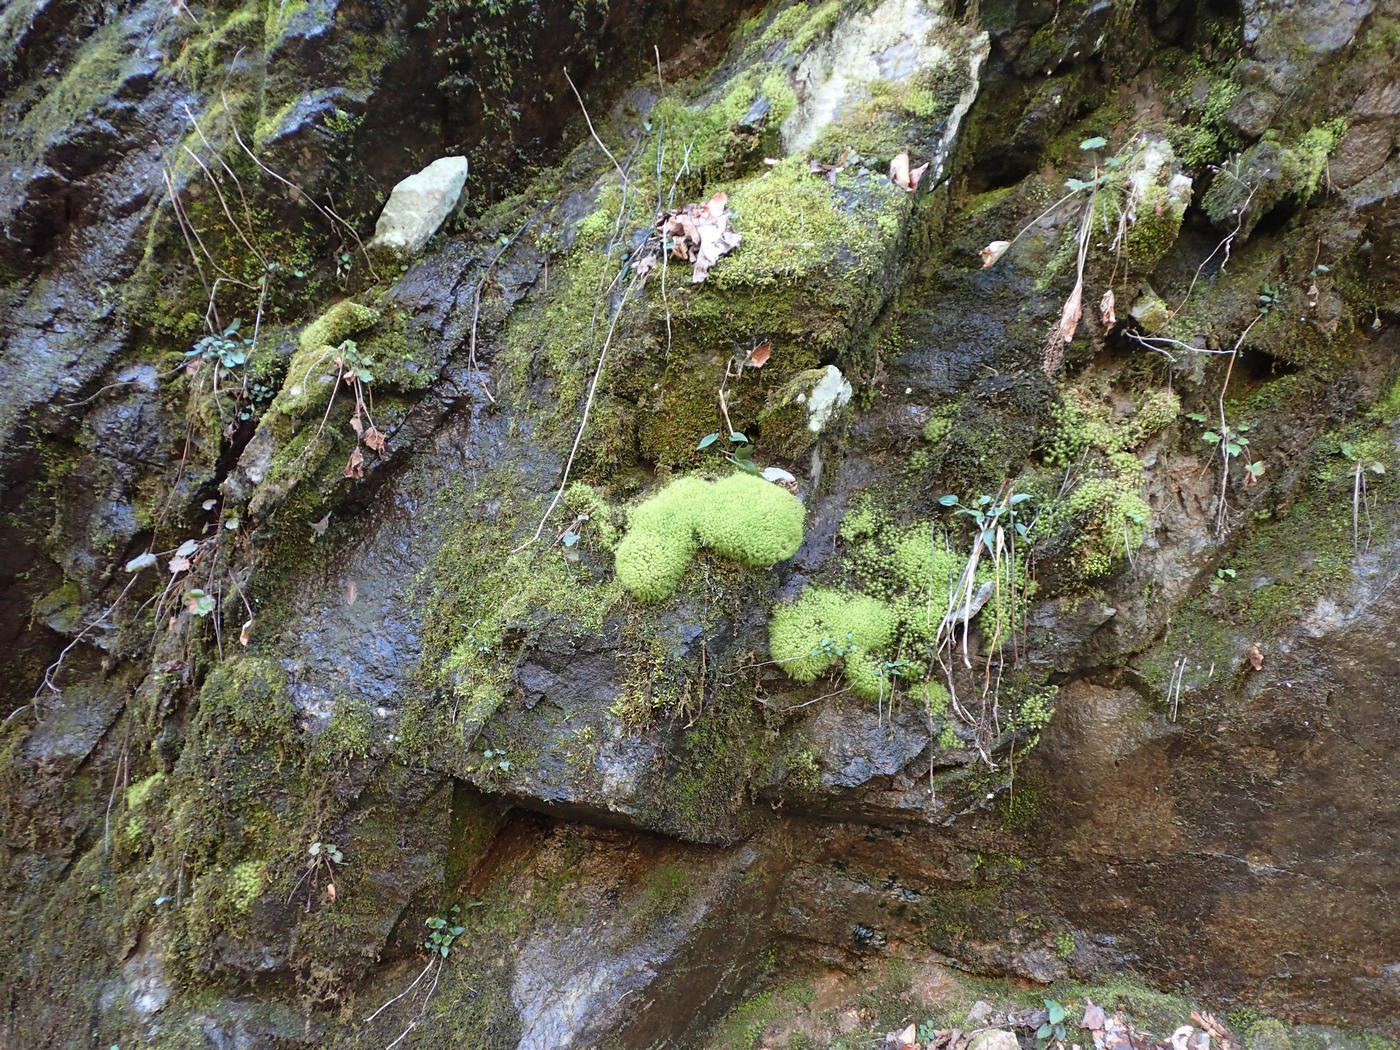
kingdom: Plantae
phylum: Bryophyta
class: Bryopsida
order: Bartramiales
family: Bartramiaceae
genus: Bartramia
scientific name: Bartramia ithyphylla
